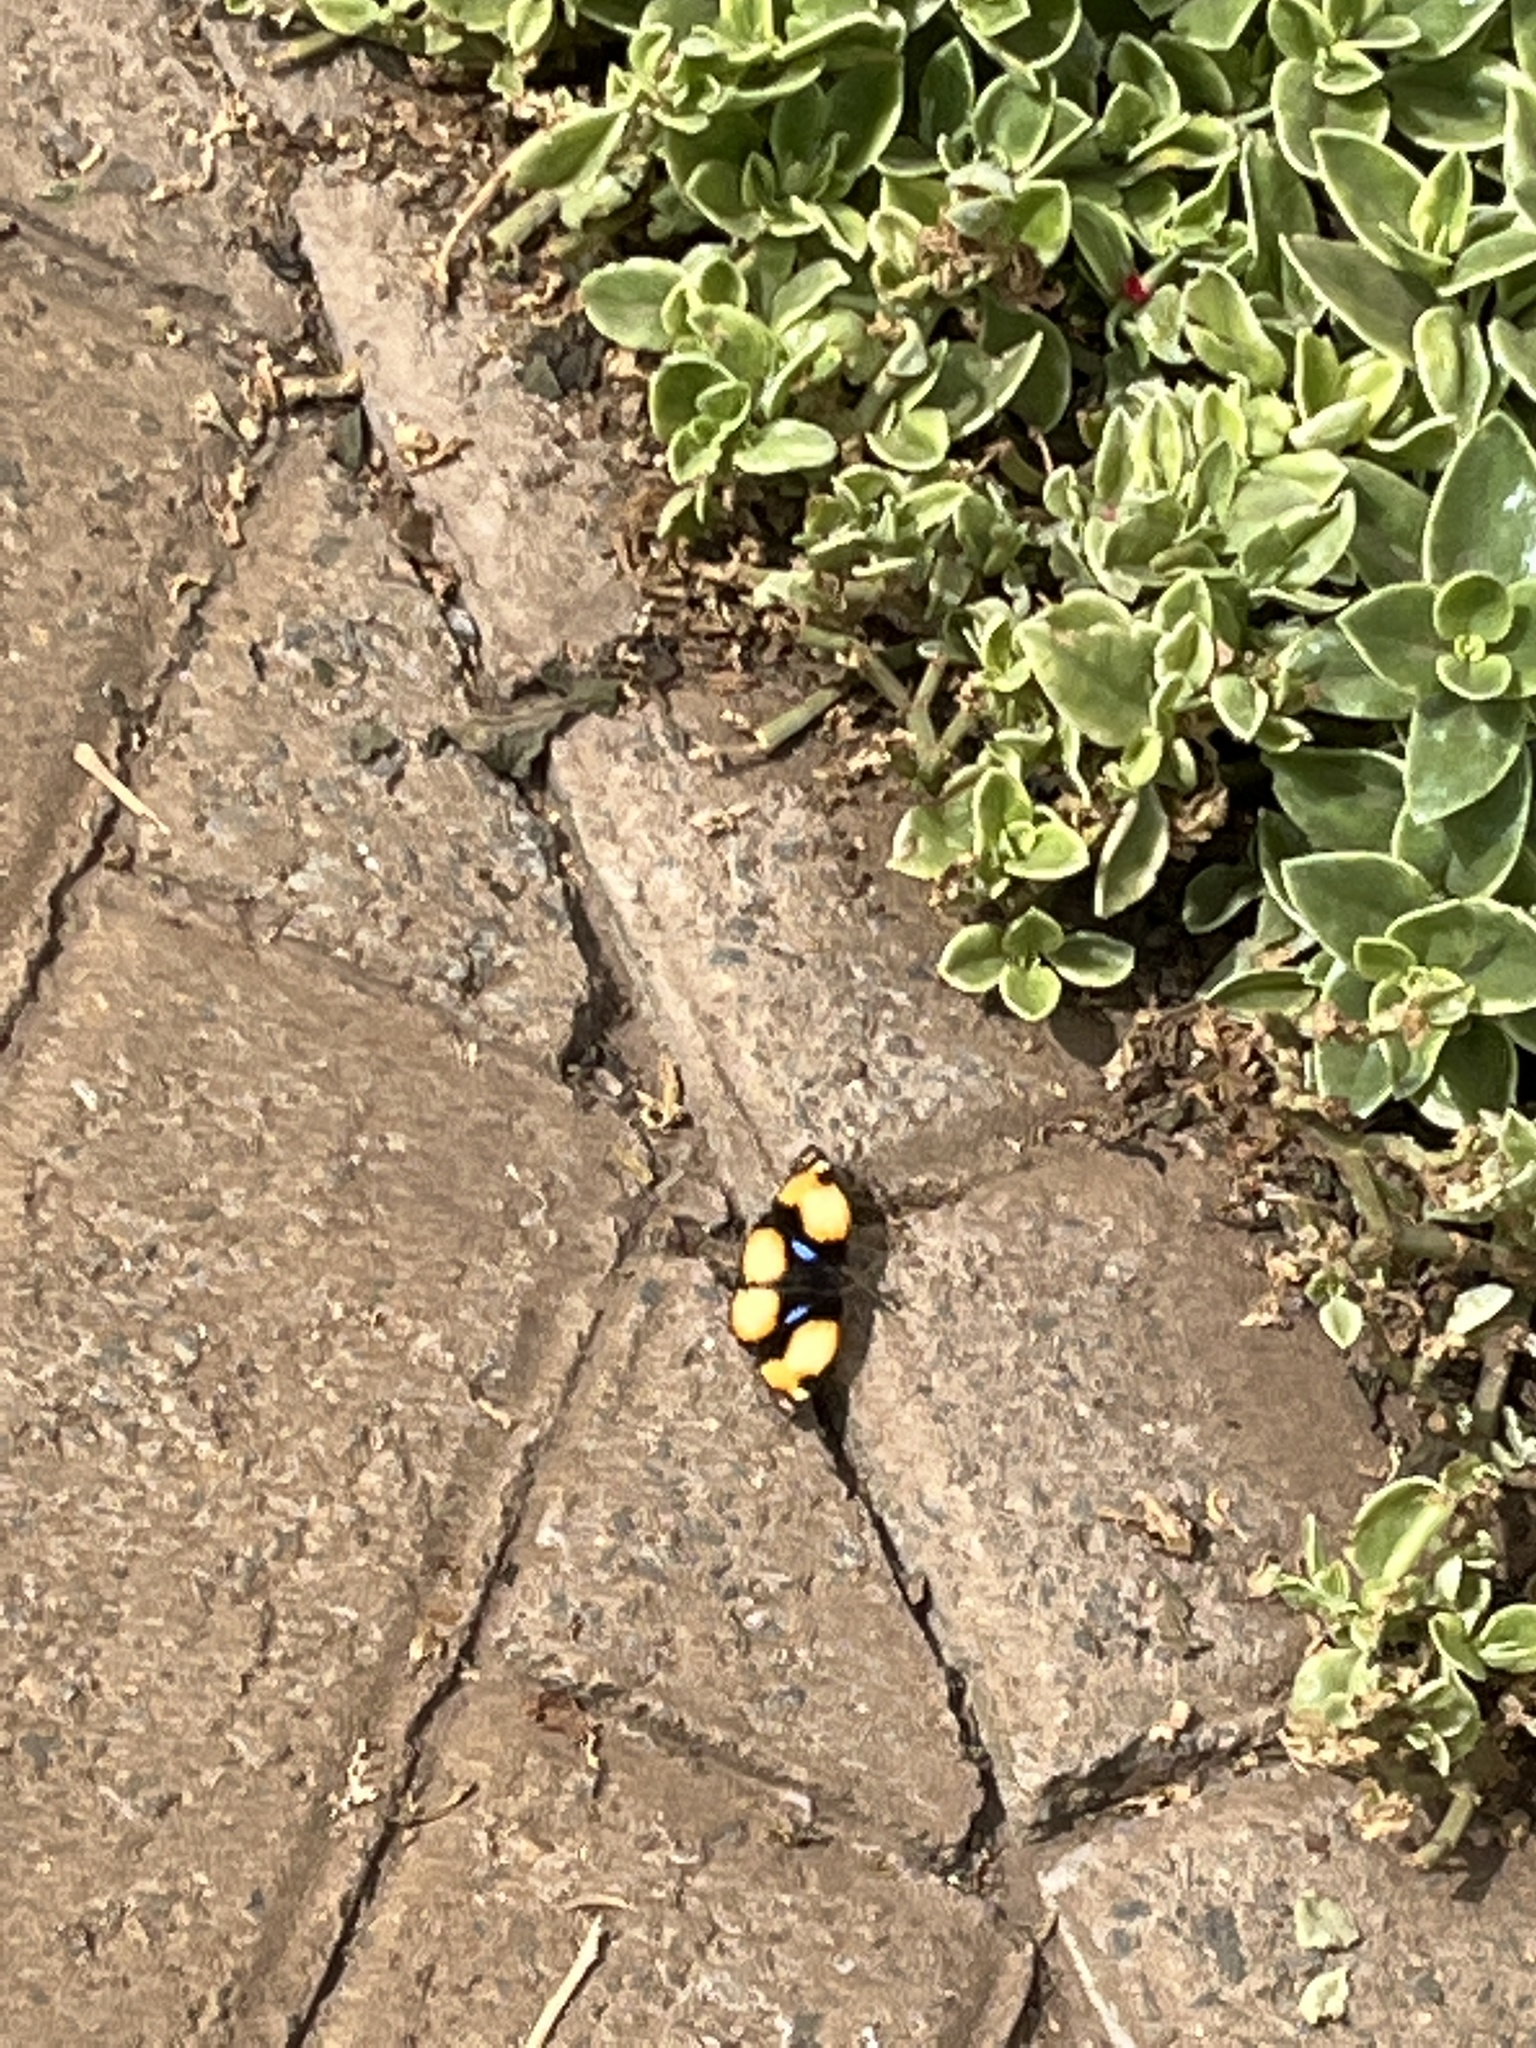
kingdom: Animalia
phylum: Arthropoda
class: Insecta
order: Lepidoptera
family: Nymphalidae
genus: Junonia
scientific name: Junonia hierta
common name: Yellow pansy
